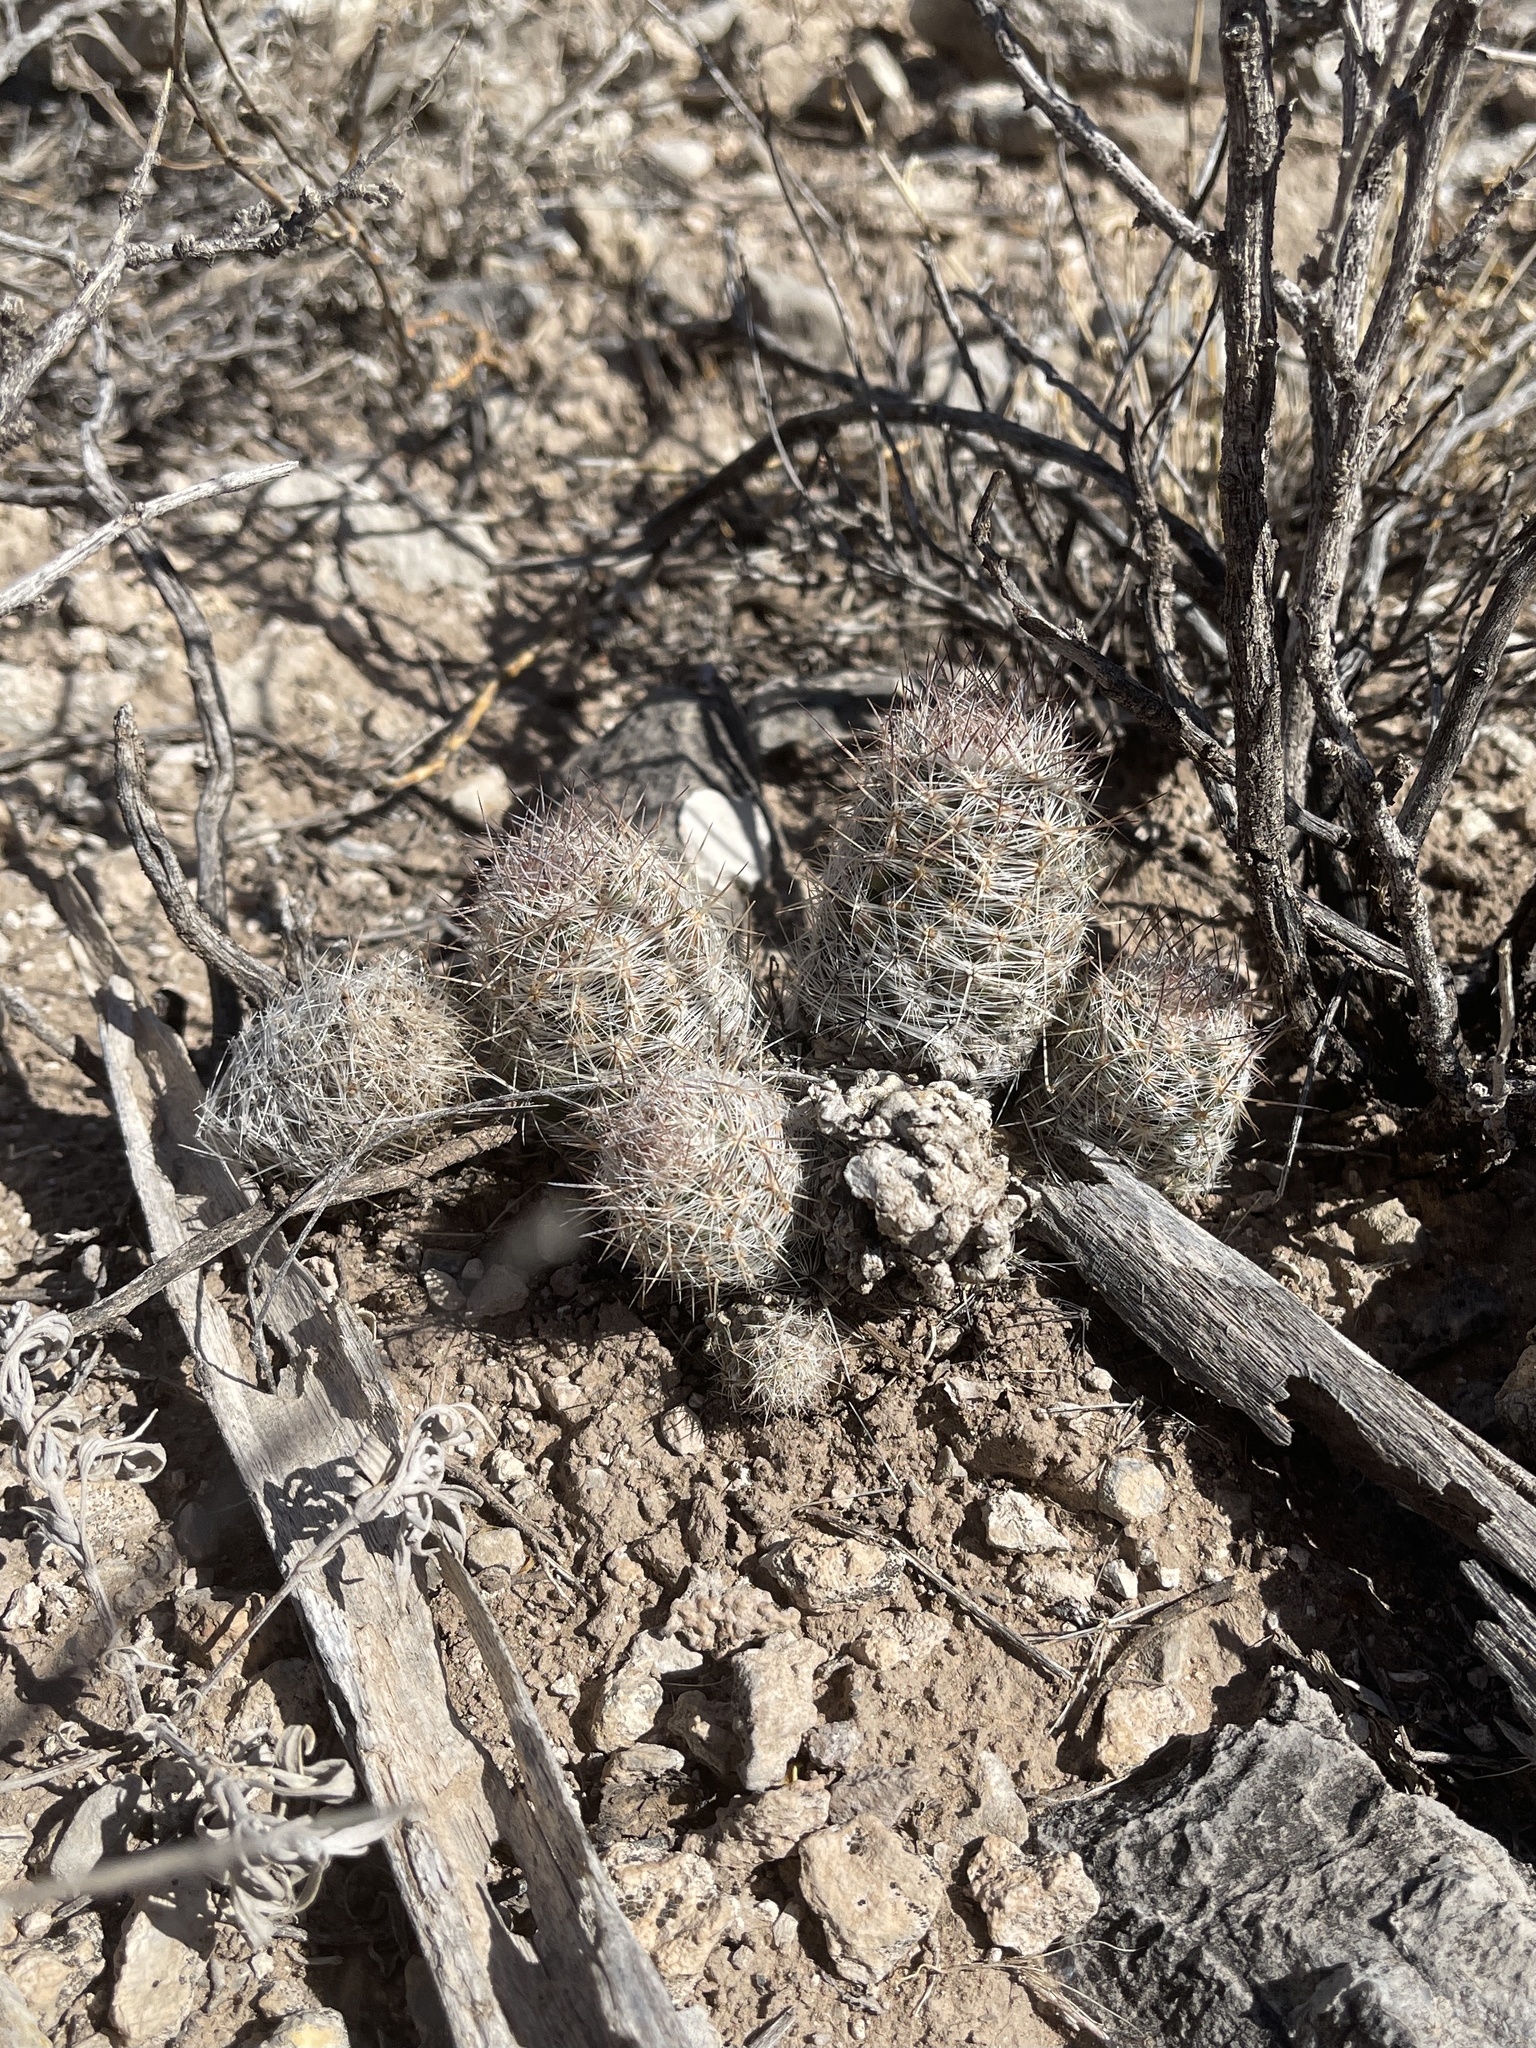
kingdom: Plantae
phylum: Tracheophyta
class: Magnoliopsida
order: Caryophyllales
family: Cactaceae
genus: Pelecyphora
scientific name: Pelecyphora tuberculosa
